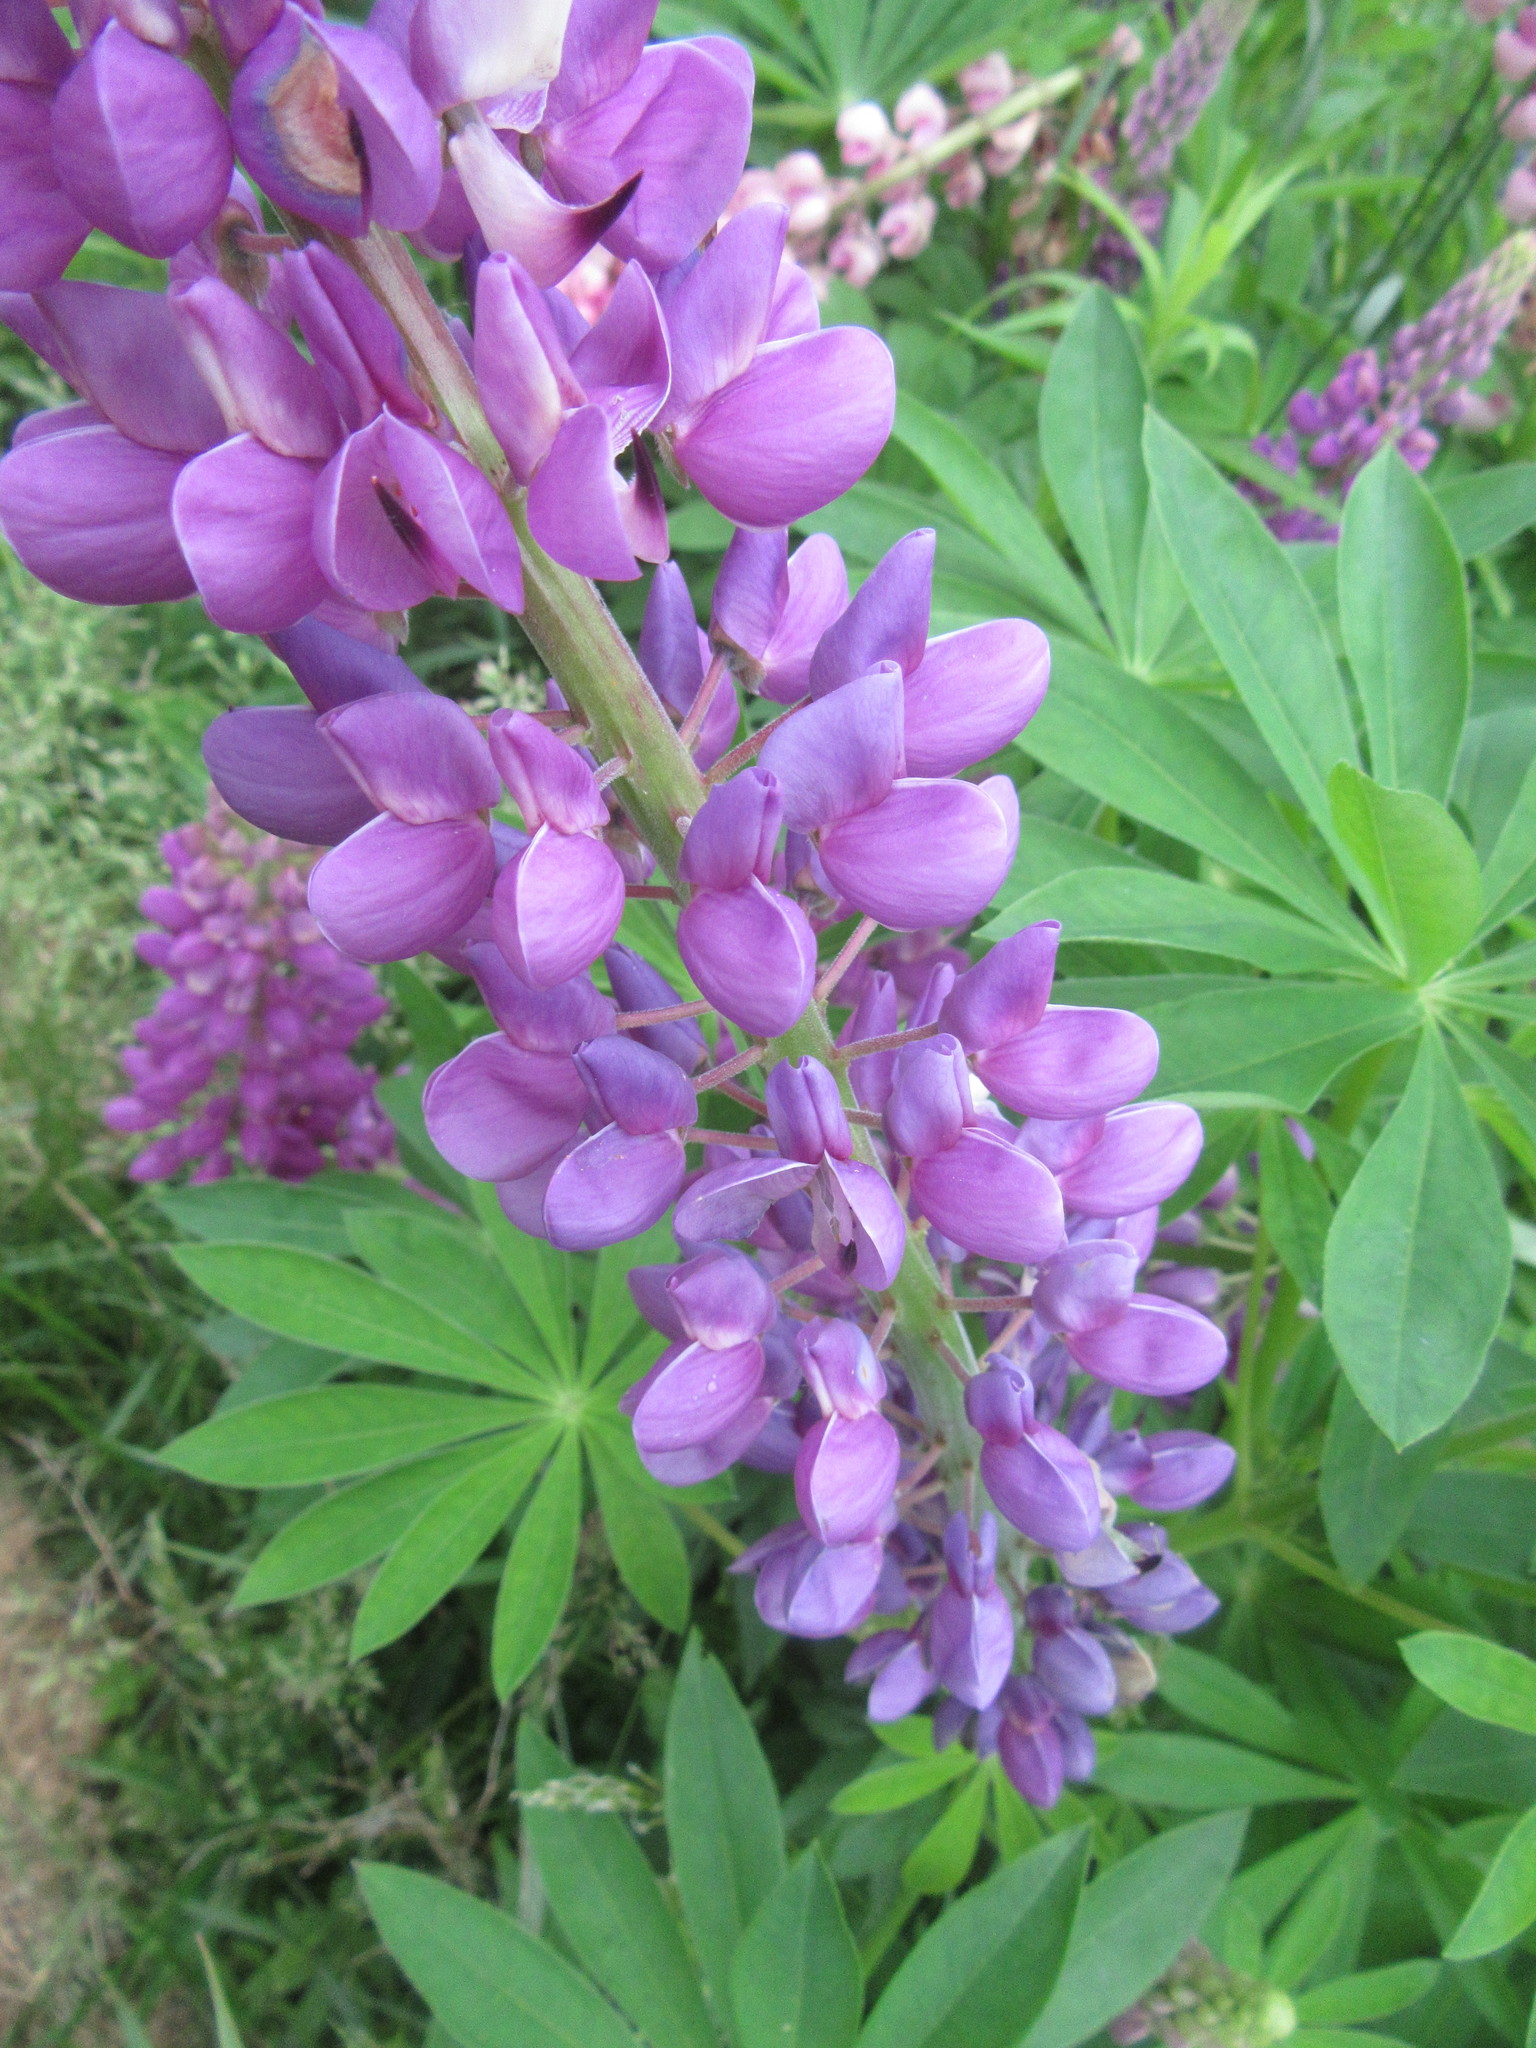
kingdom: Plantae
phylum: Tracheophyta
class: Magnoliopsida
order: Fabales
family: Fabaceae
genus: Lupinus
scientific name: Lupinus polyphyllus
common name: Garden lupin
